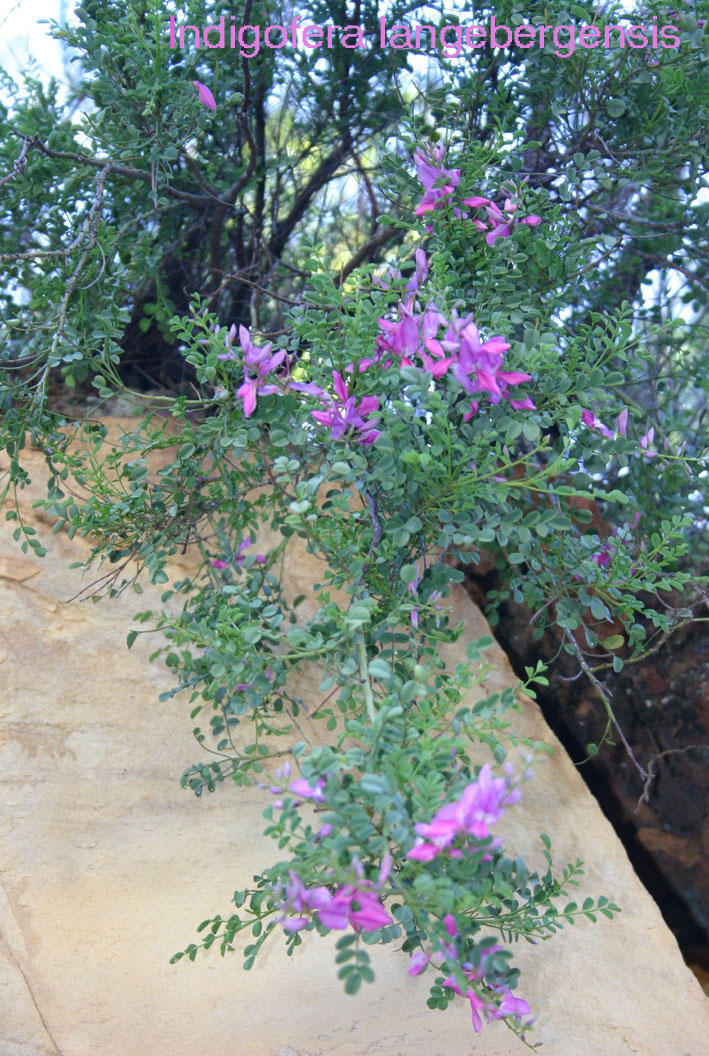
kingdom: Plantae
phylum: Tracheophyta
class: Magnoliopsida
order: Fabales
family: Fabaceae
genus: Indigofera
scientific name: Indigofera langebergensis
